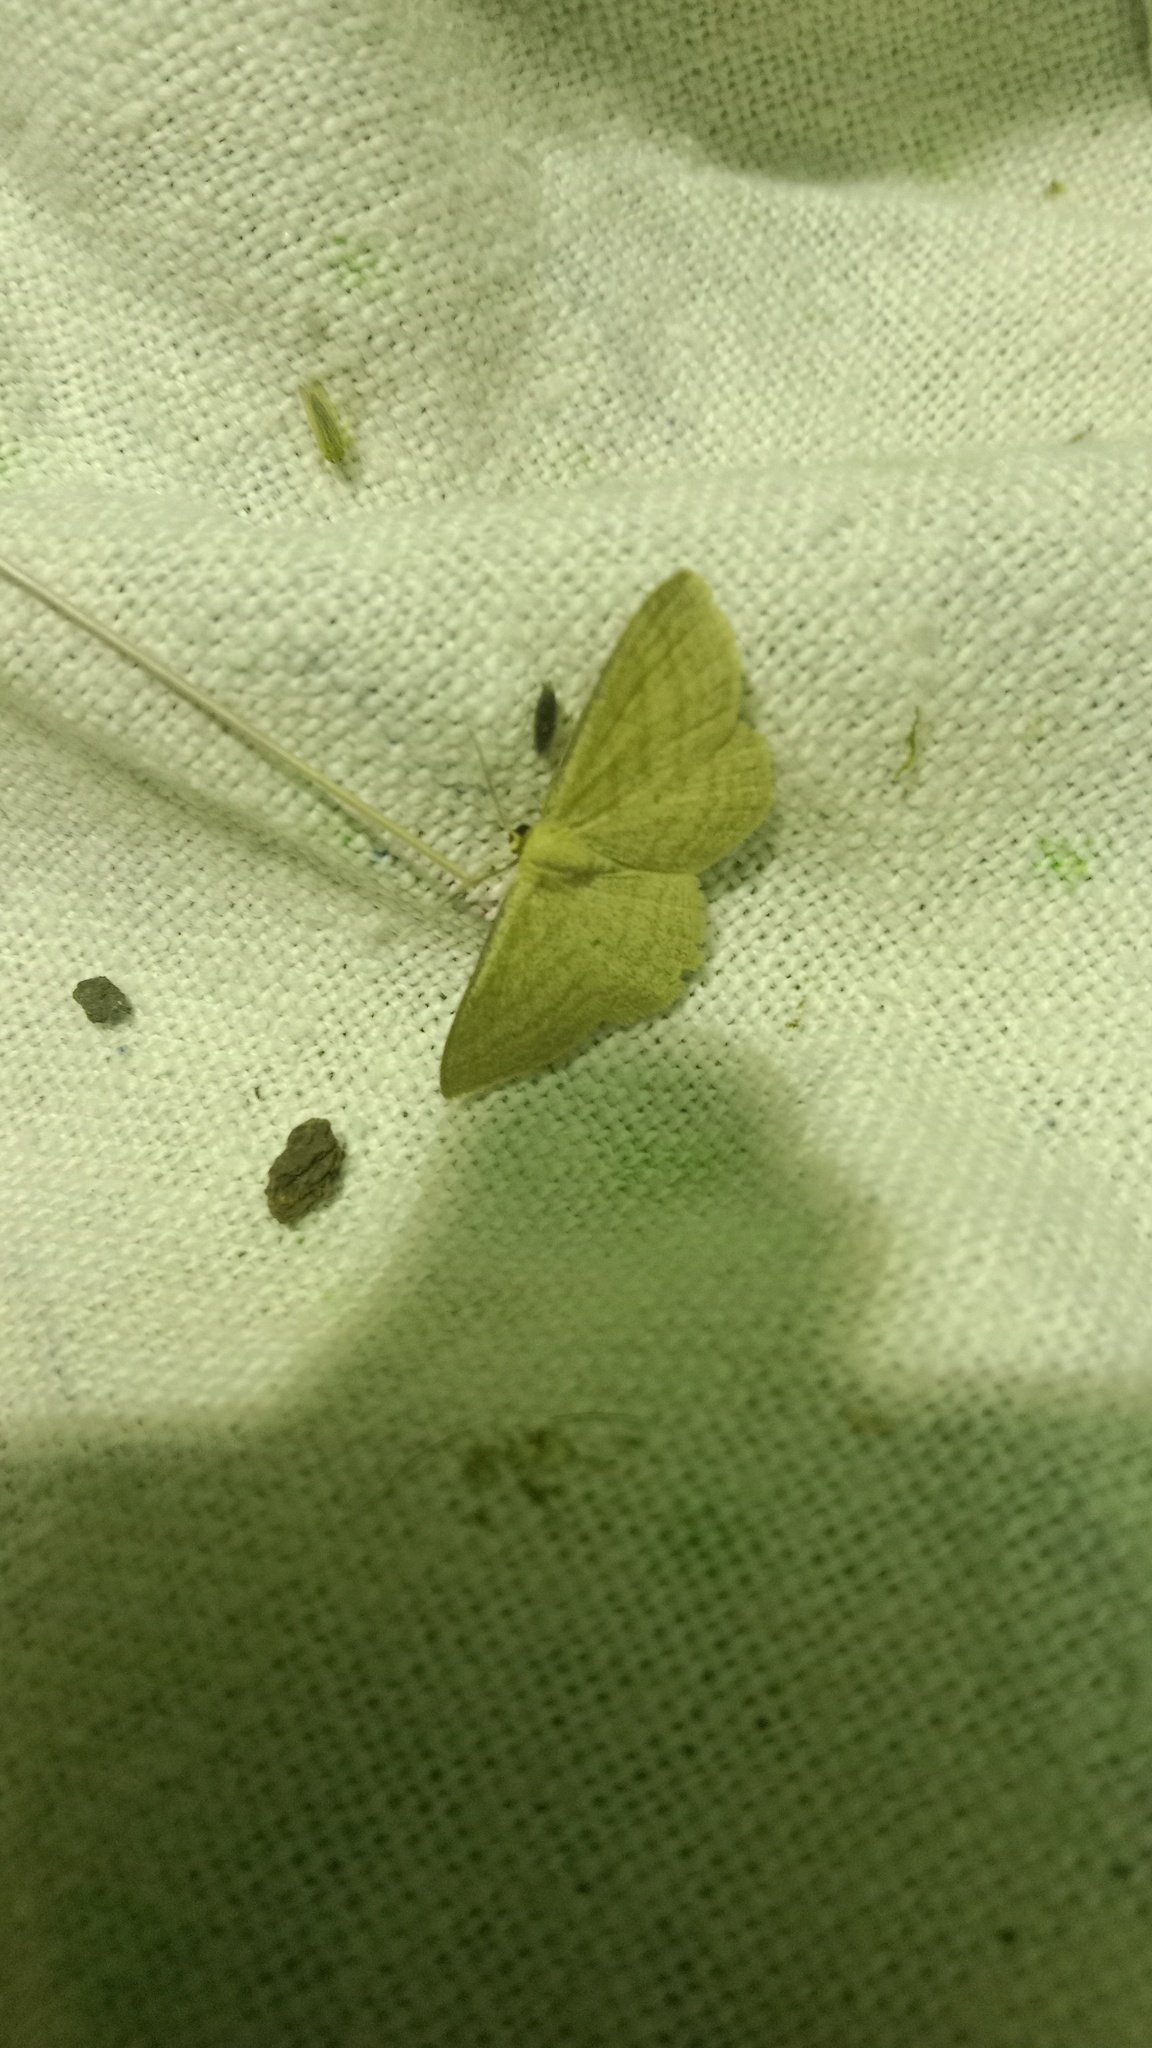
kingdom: Animalia
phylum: Arthropoda
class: Insecta
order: Lepidoptera
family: Geometridae
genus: Scopula
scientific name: Scopula virgulata
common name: Streaked wave
